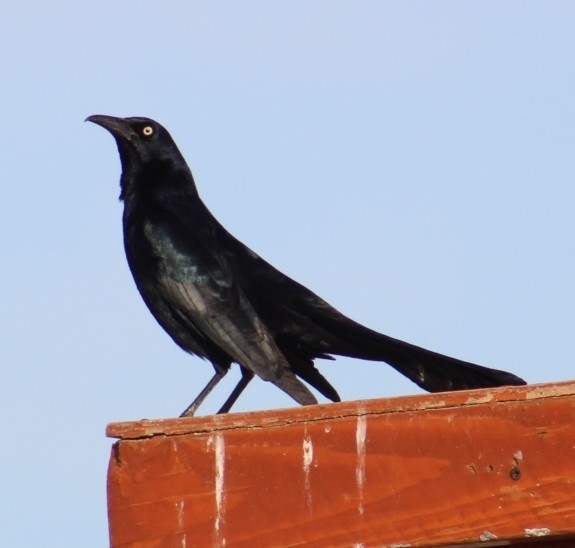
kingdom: Animalia
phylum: Chordata
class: Aves
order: Passeriformes
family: Icteridae
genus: Quiscalus
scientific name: Quiscalus mexicanus
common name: Great-tailed grackle
